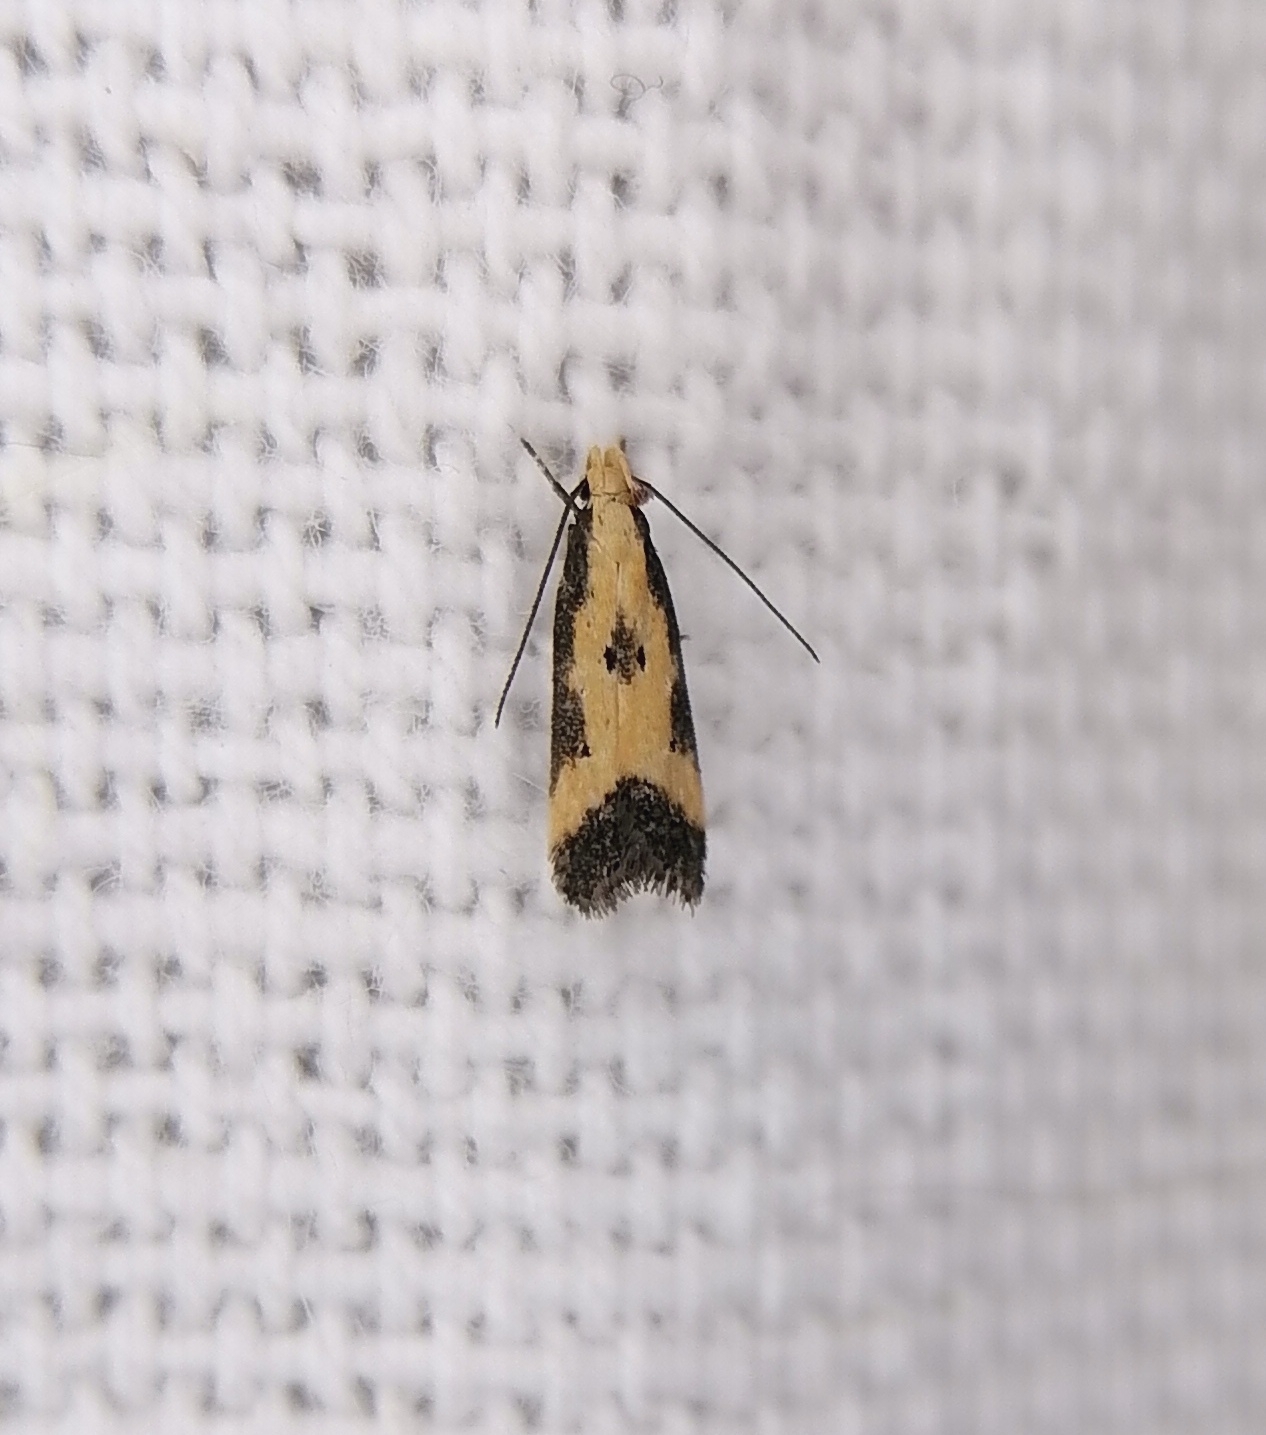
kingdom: Animalia
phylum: Arthropoda
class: Insecta
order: Lepidoptera
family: Gelechiidae
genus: Brachmia
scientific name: Brachmia dimidiella
